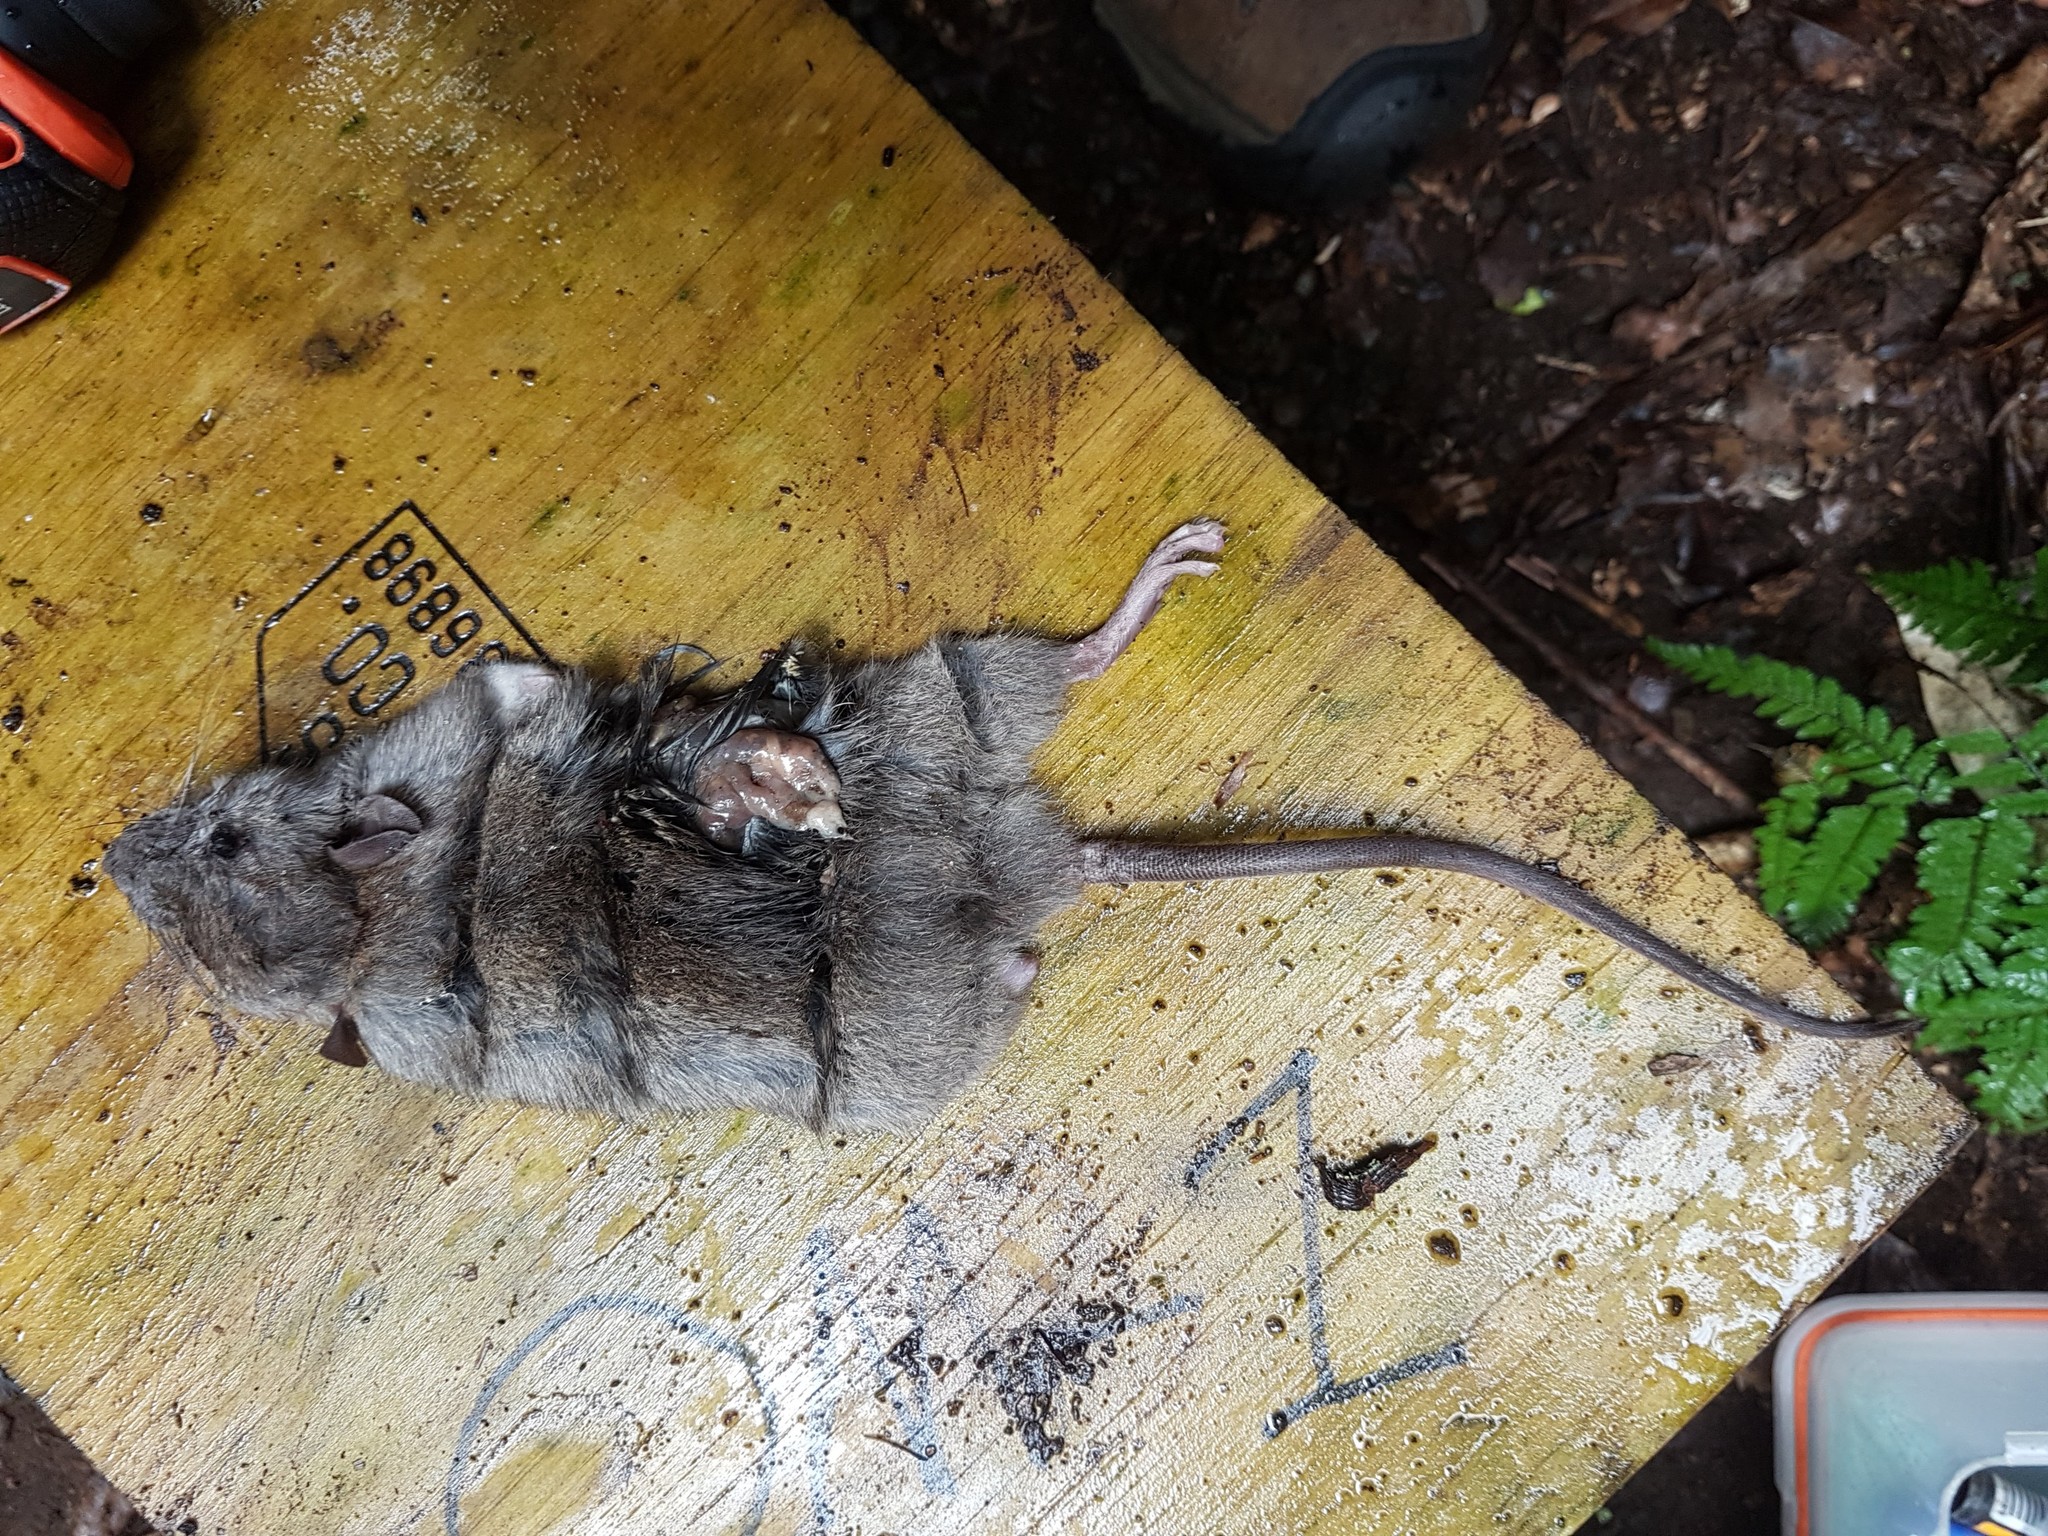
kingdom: Animalia
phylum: Chordata
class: Mammalia
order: Rodentia
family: Muridae
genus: Rattus
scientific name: Rattus rattus
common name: Black rat
